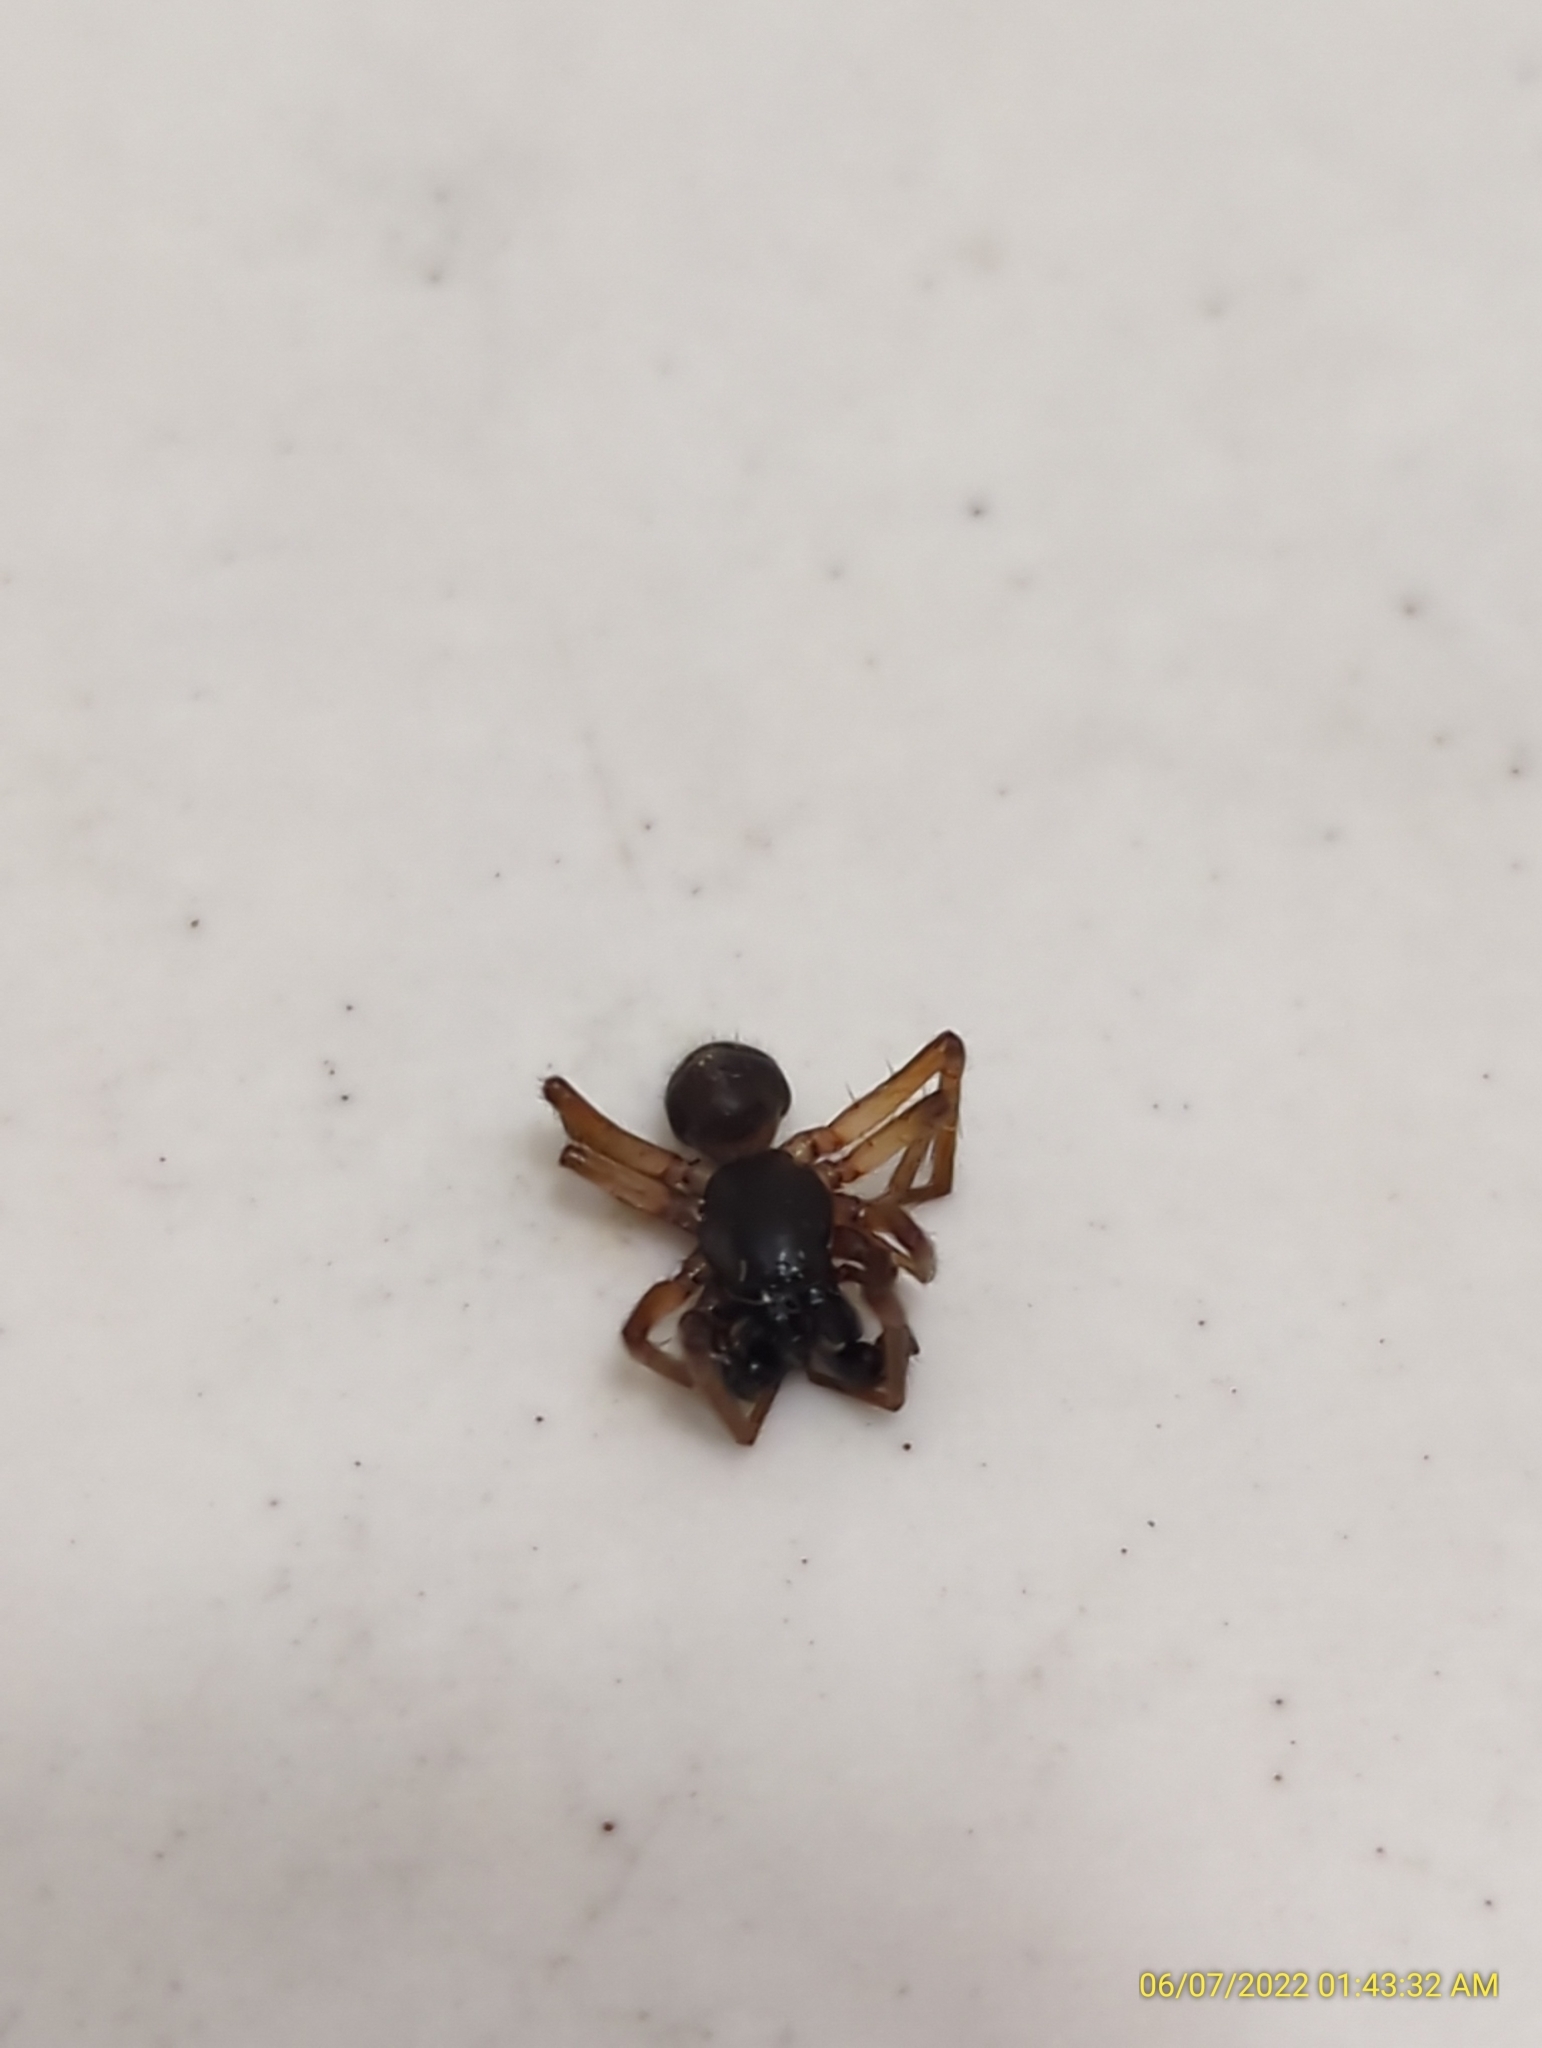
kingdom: Animalia
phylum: Arthropoda
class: Arachnida
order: Araneae
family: Corinnidae
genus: Falconina
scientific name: Falconina gracilis
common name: Antmimic spider
